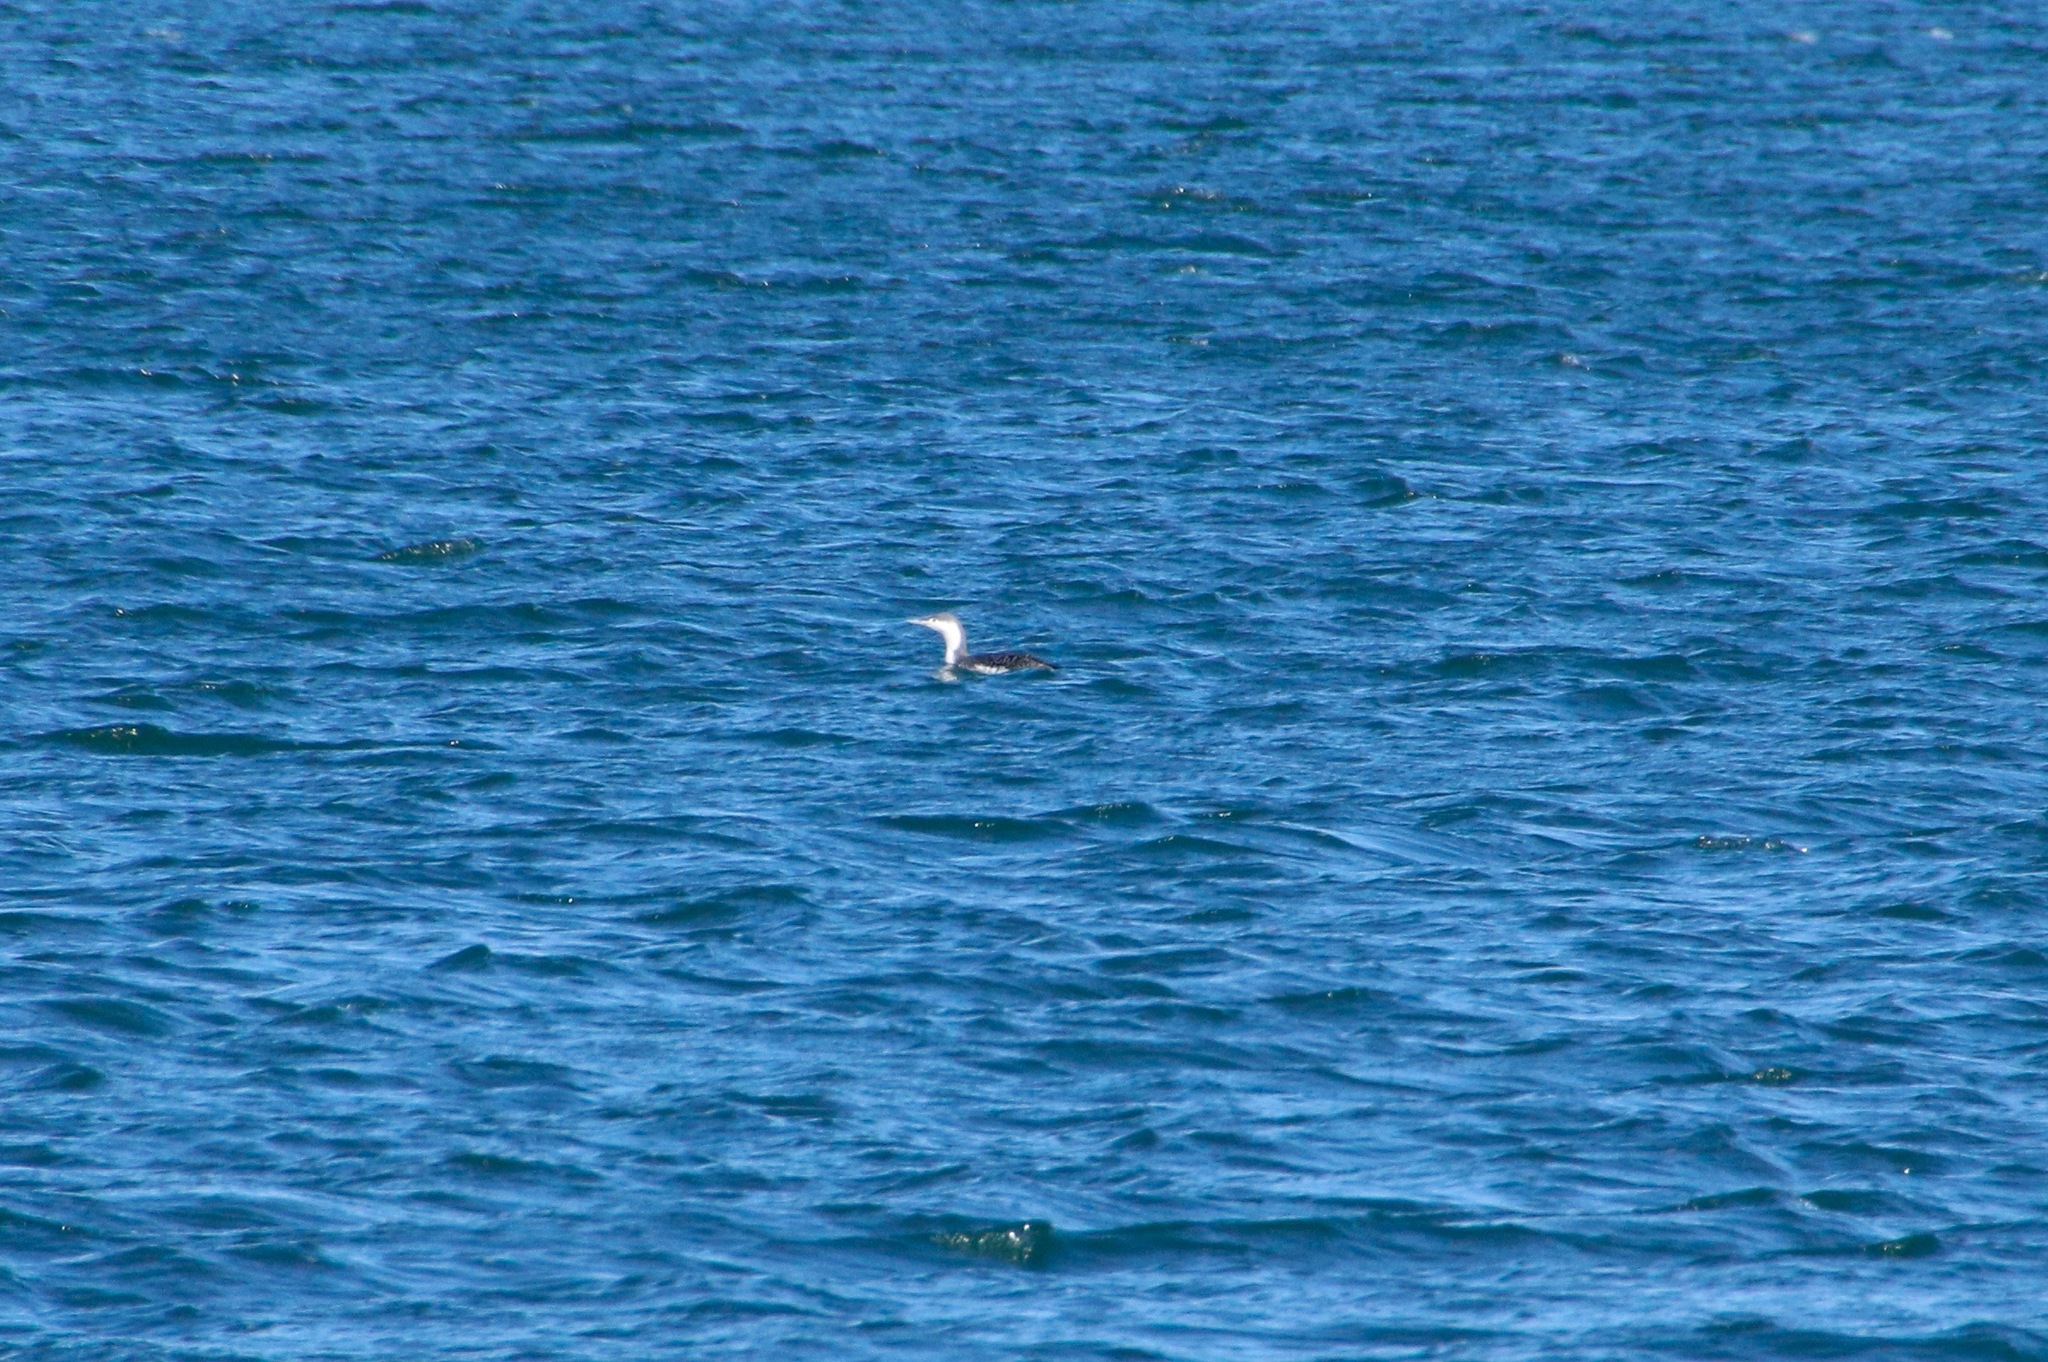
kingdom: Animalia
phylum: Chordata
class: Aves
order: Gaviiformes
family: Gaviidae
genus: Gavia
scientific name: Gavia stellata
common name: Red-throated loon
